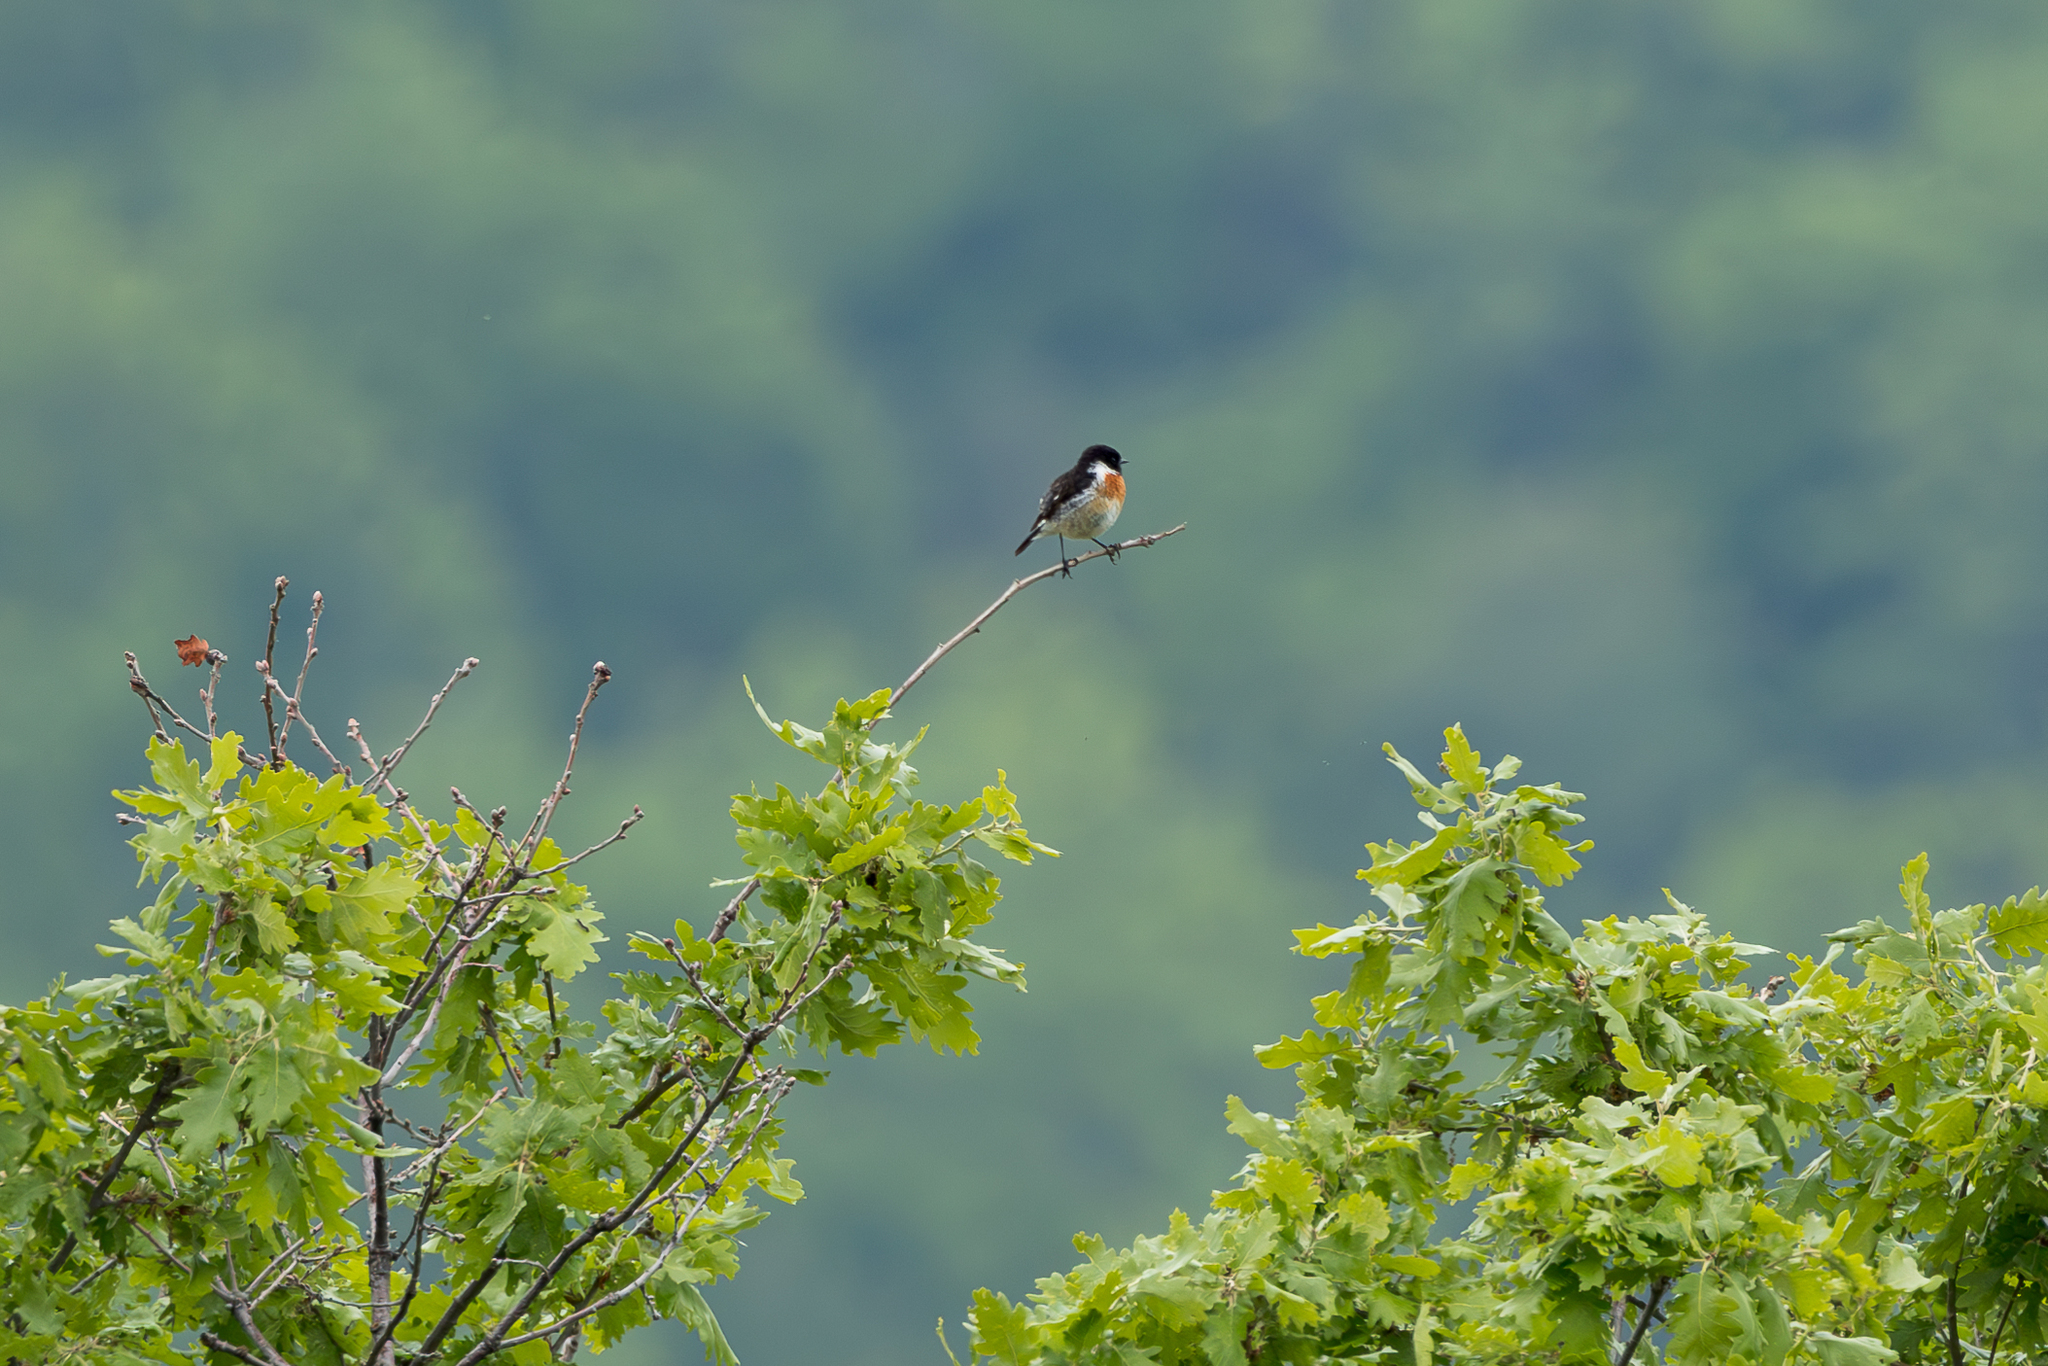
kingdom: Animalia
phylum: Chordata
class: Aves
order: Passeriformes
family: Muscicapidae
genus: Saxicola
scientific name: Saxicola rubicola
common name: European stonechat
